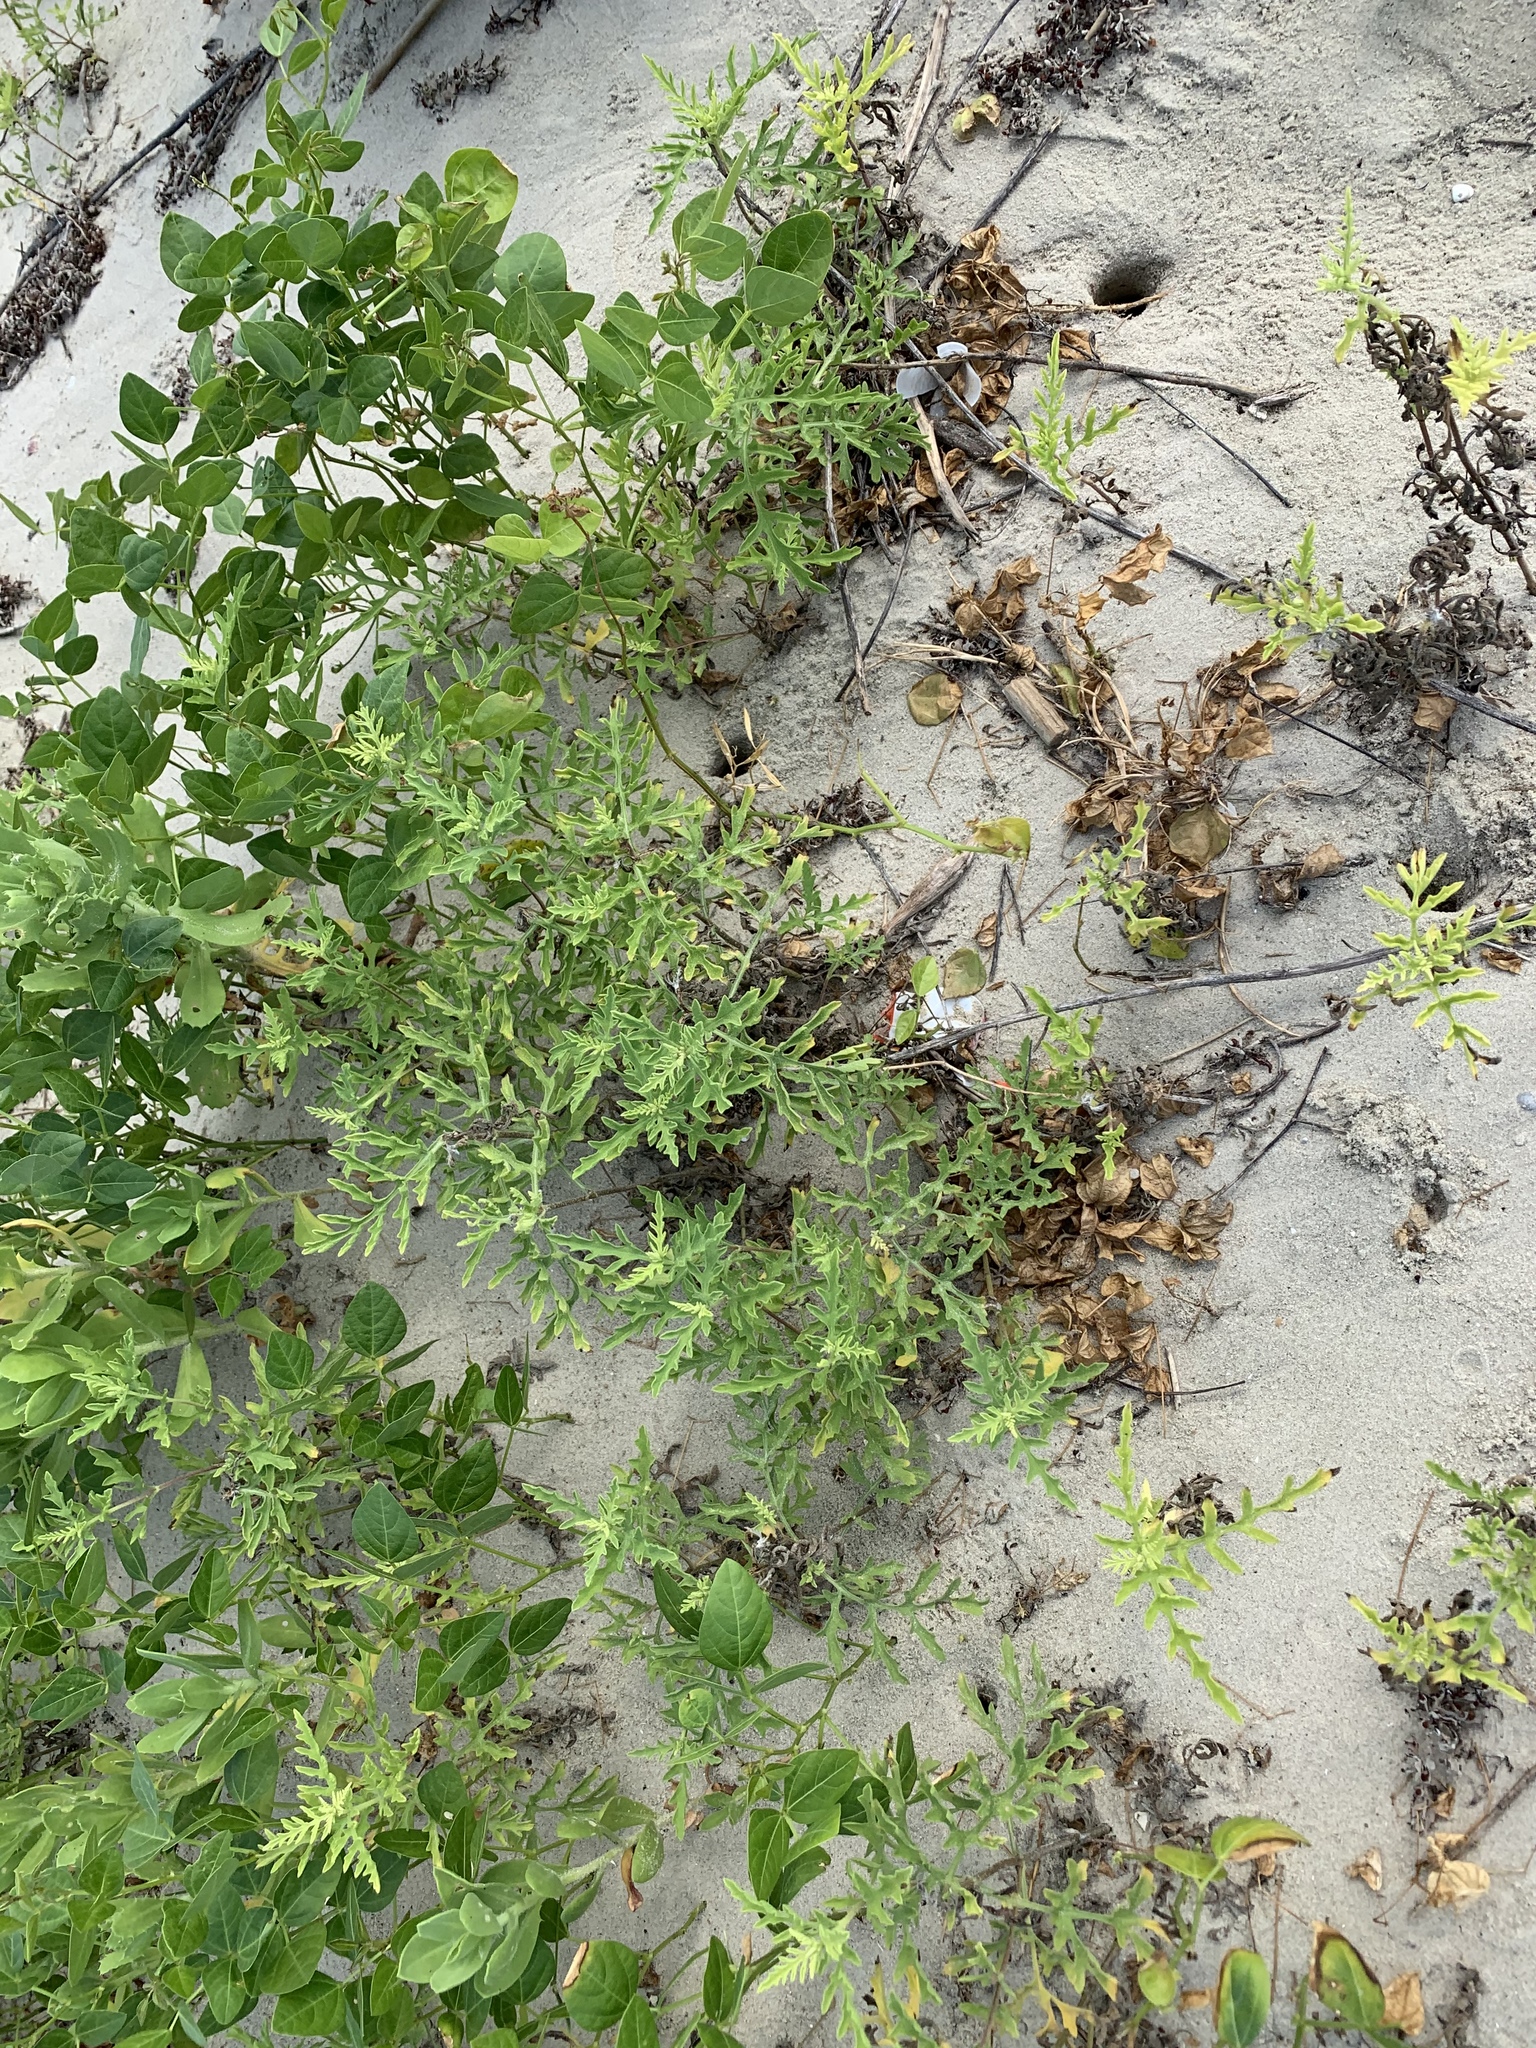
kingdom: Plantae
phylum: Tracheophyta
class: Magnoliopsida
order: Asterales
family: Asteraceae
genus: Ambrosia
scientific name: Ambrosia psilostachya
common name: Perennial ragweed
